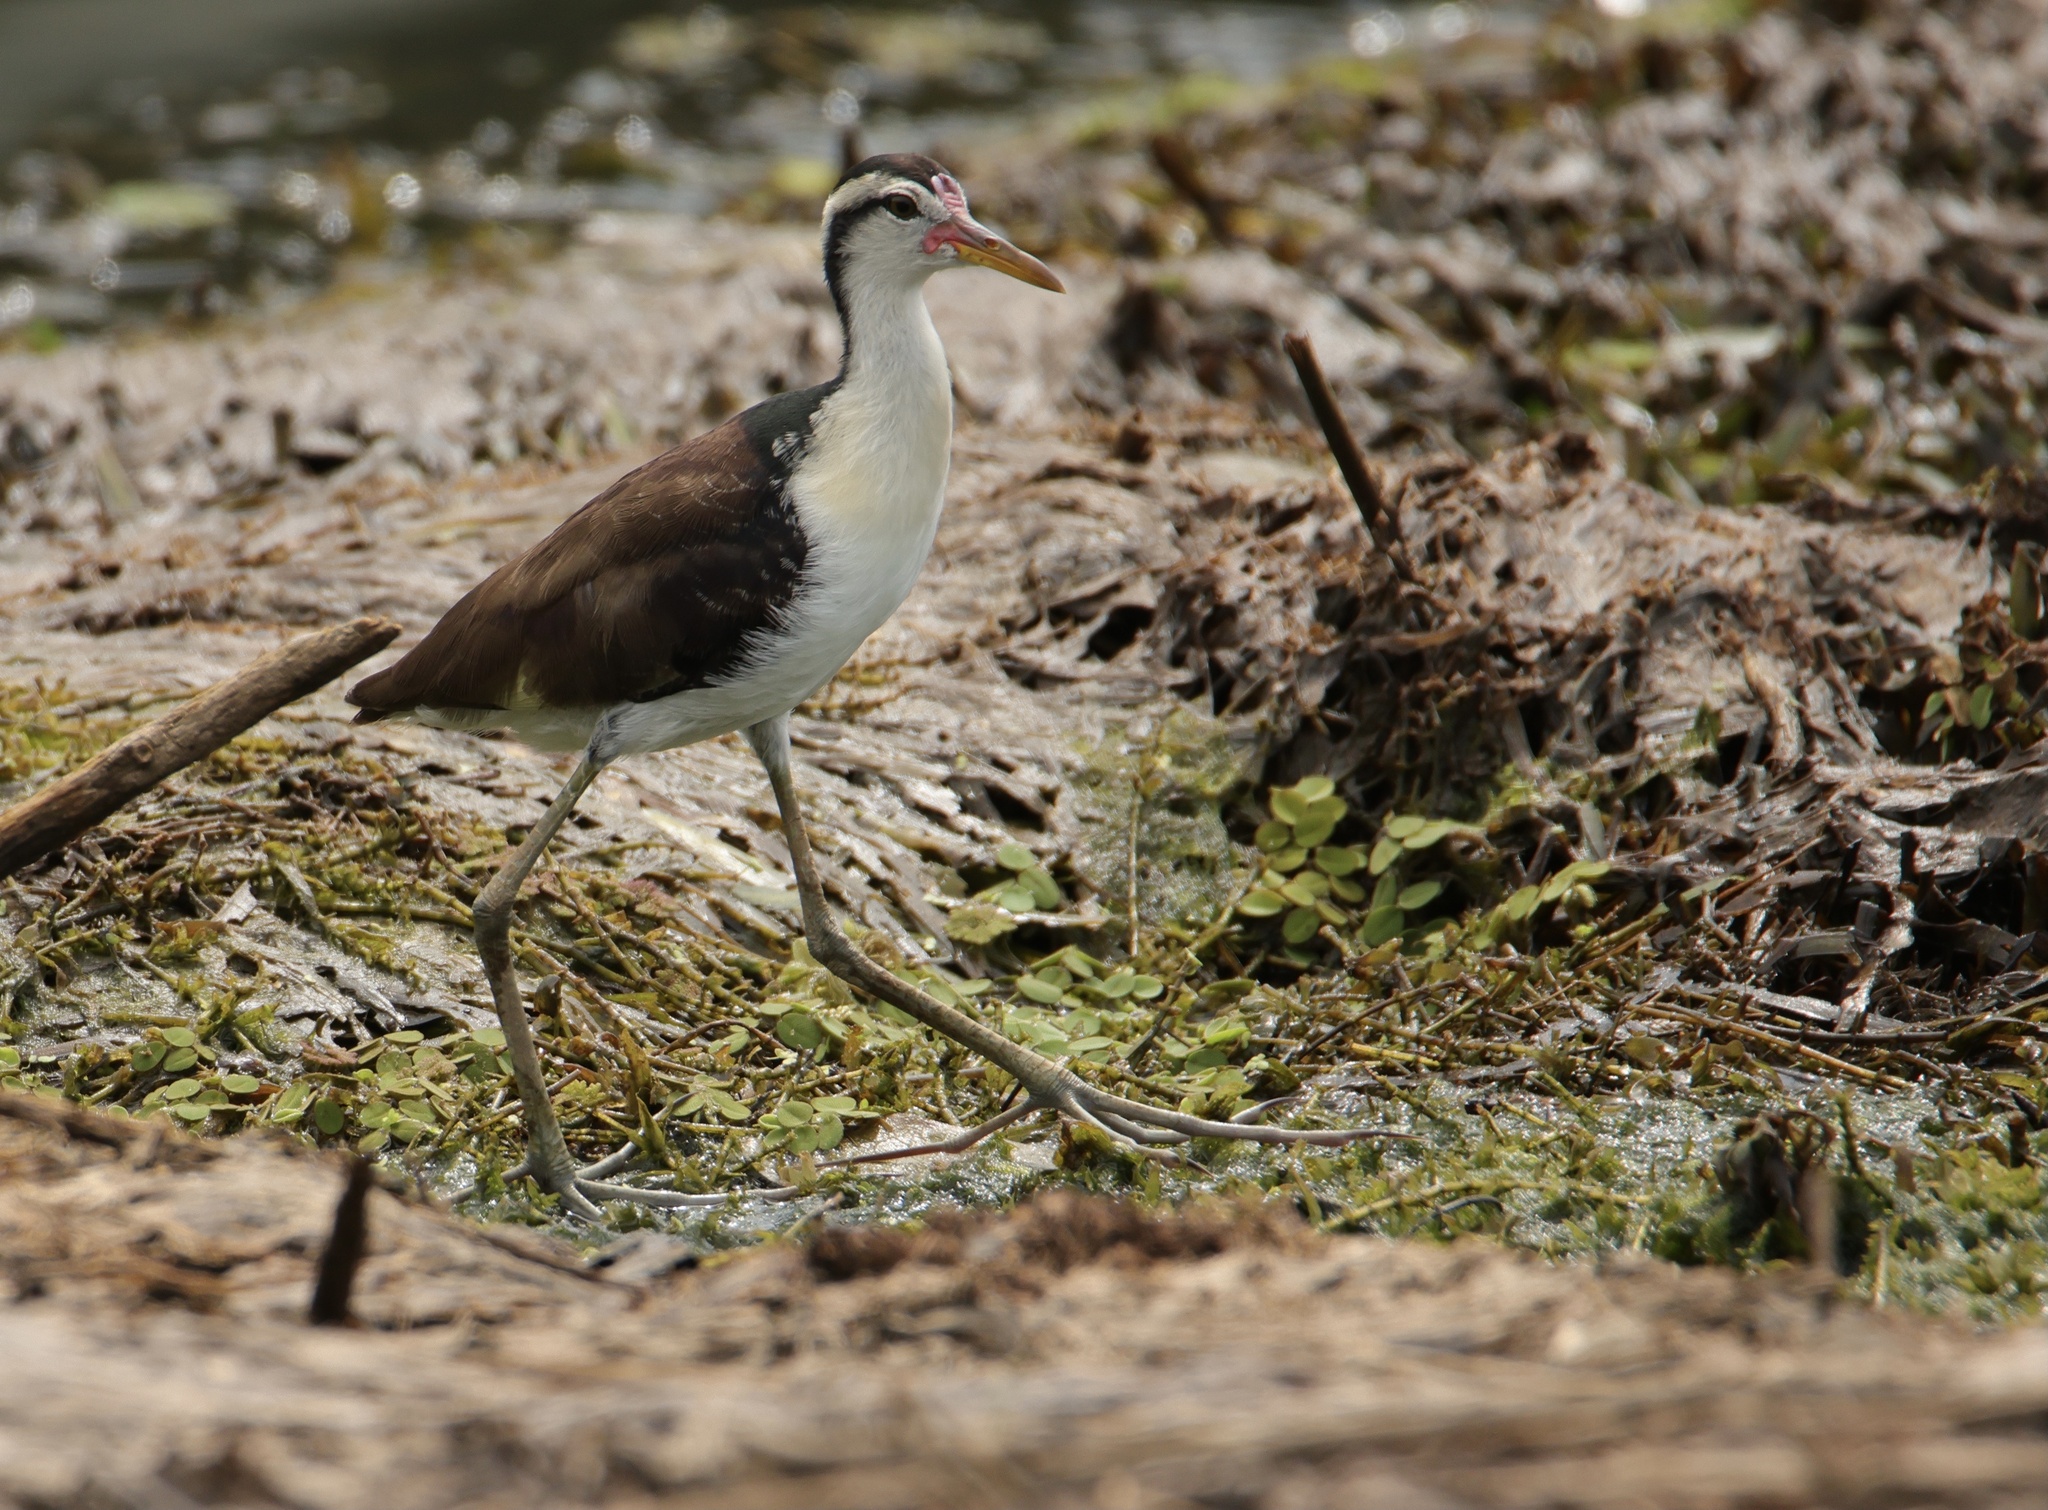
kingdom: Animalia
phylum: Chordata
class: Aves
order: Charadriiformes
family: Jacanidae
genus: Jacana
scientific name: Jacana jacana
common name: Wattled jacana
